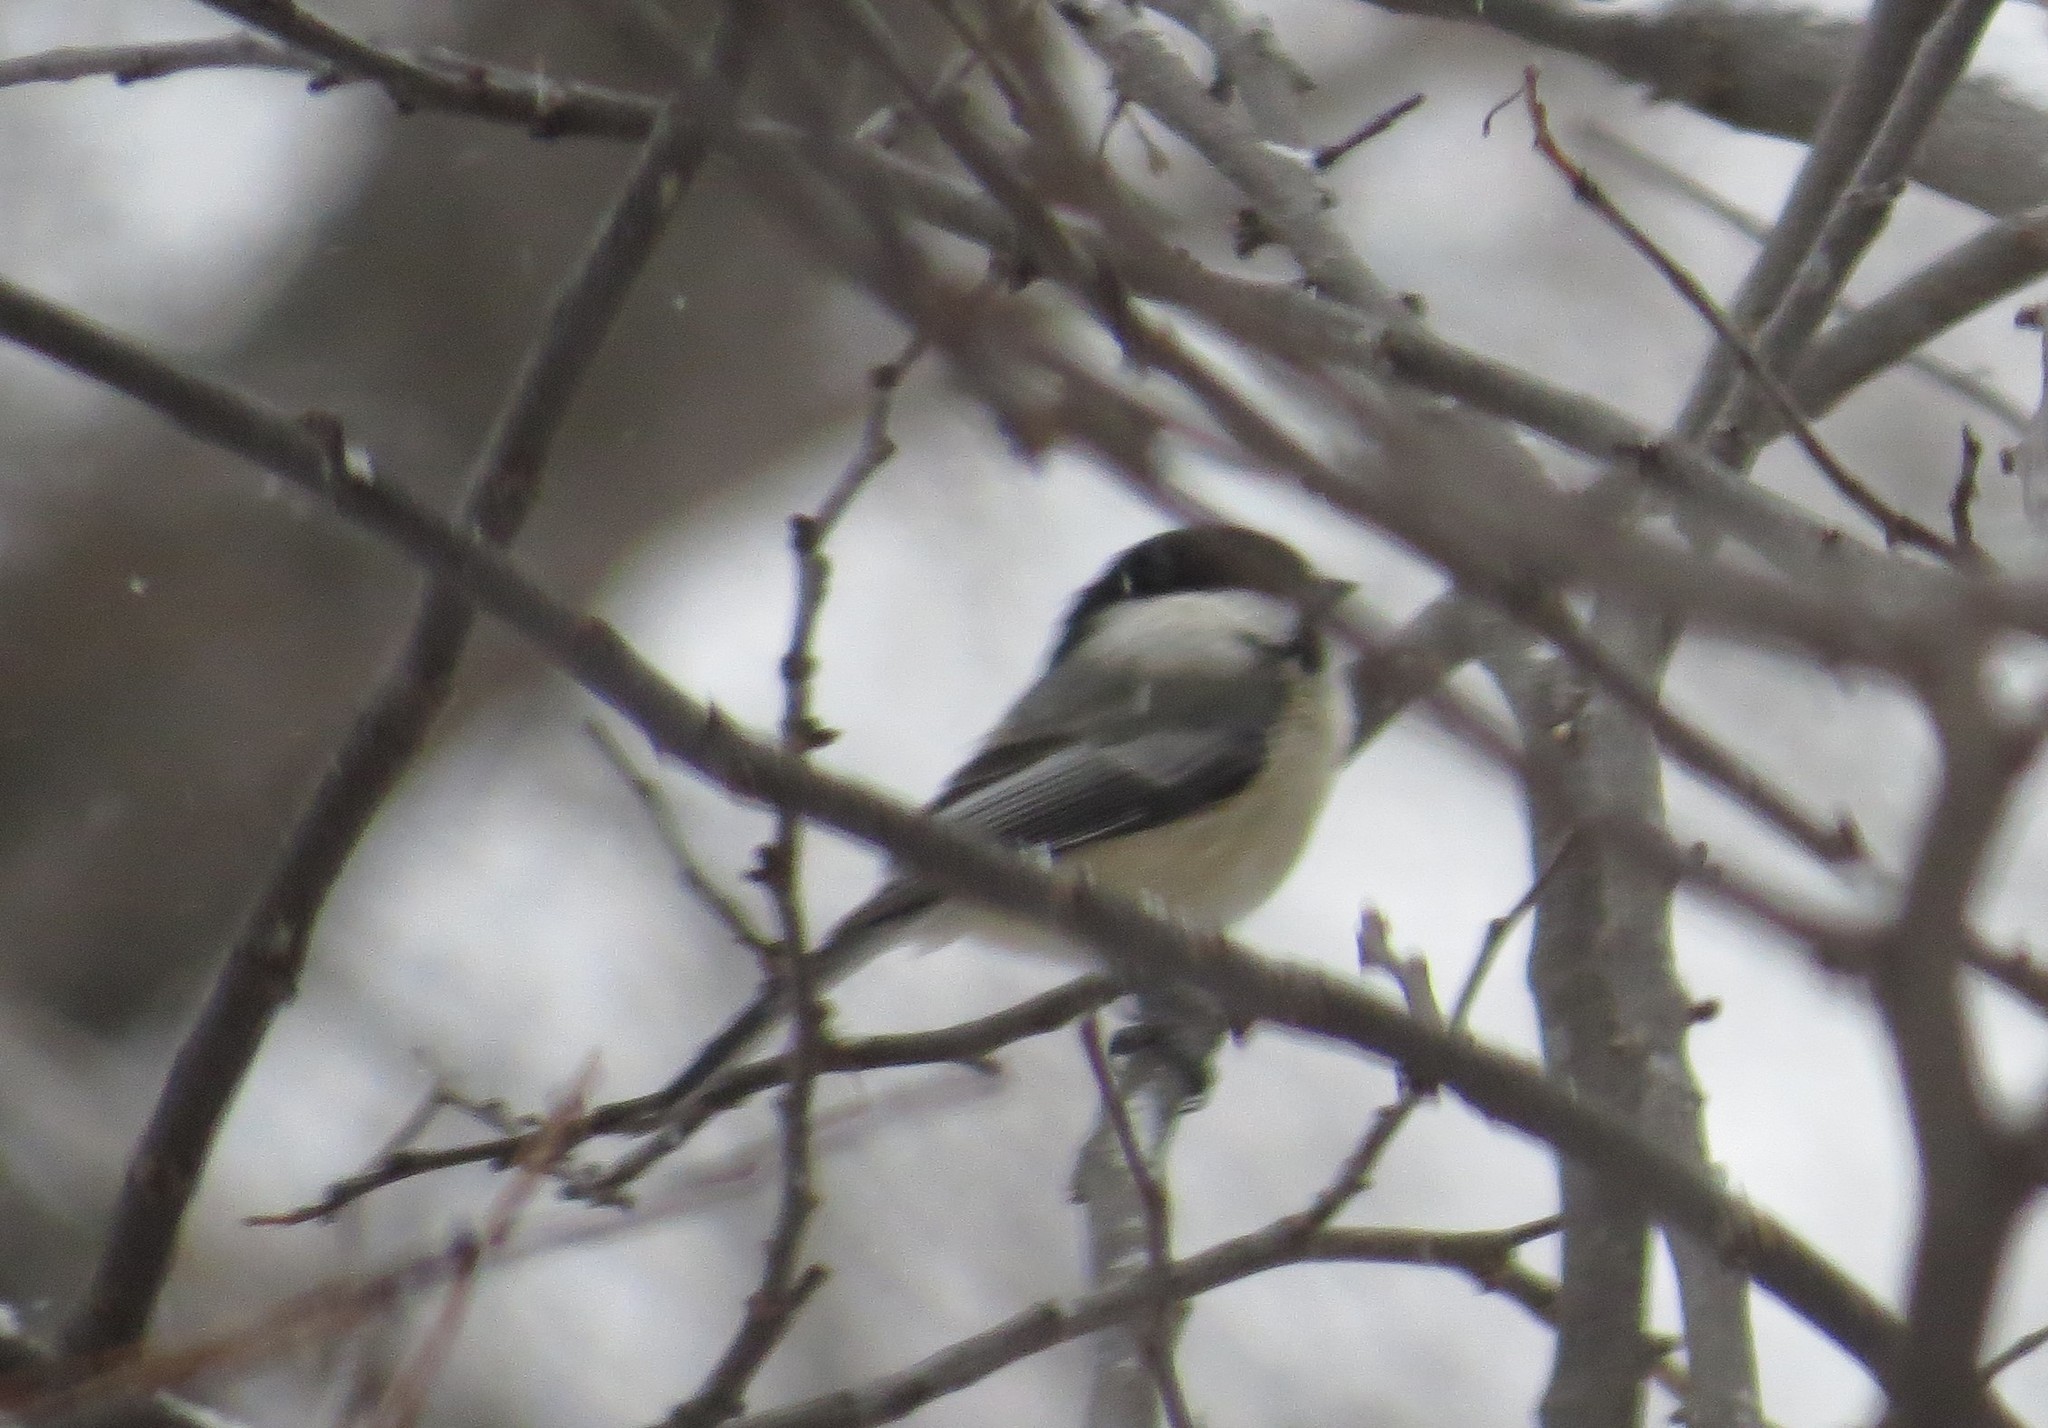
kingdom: Animalia
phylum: Chordata
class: Aves
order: Passeriformes
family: Paridae
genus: Poecile
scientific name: Poecile atricapillus
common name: Black-capped chickadee
